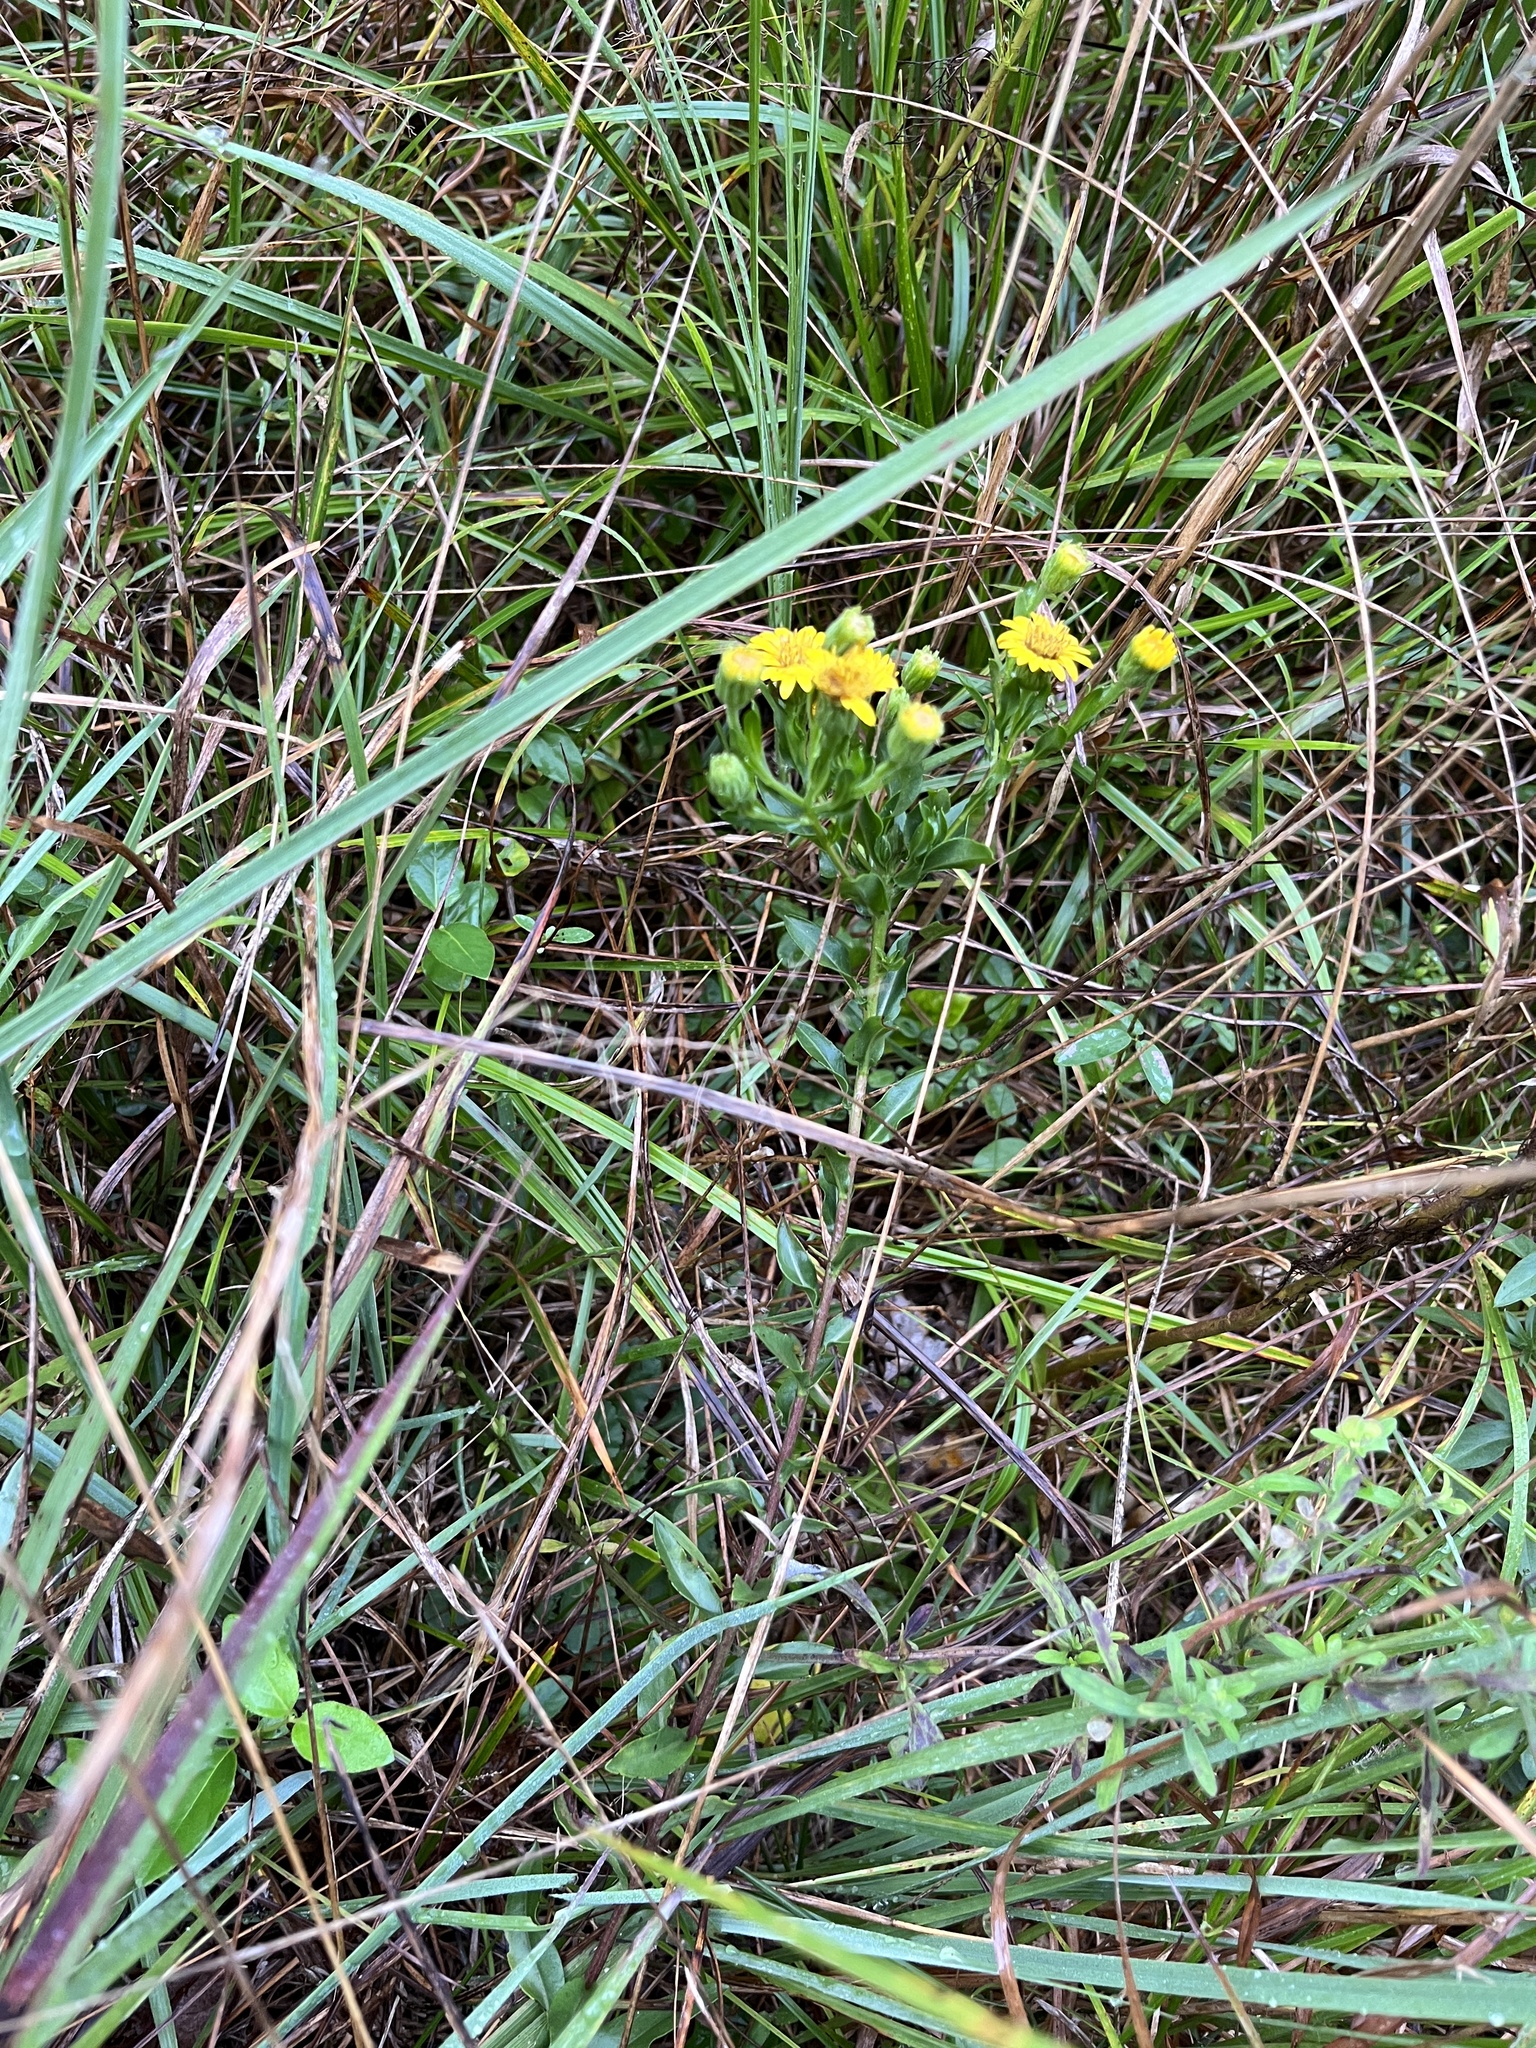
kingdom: Plantae
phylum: Tracheophyta
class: Magnoliopsida
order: Asterales
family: Asteraceae
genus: Chrysopsis
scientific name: Chrysopsis mariana
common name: Maryland golden-aster
